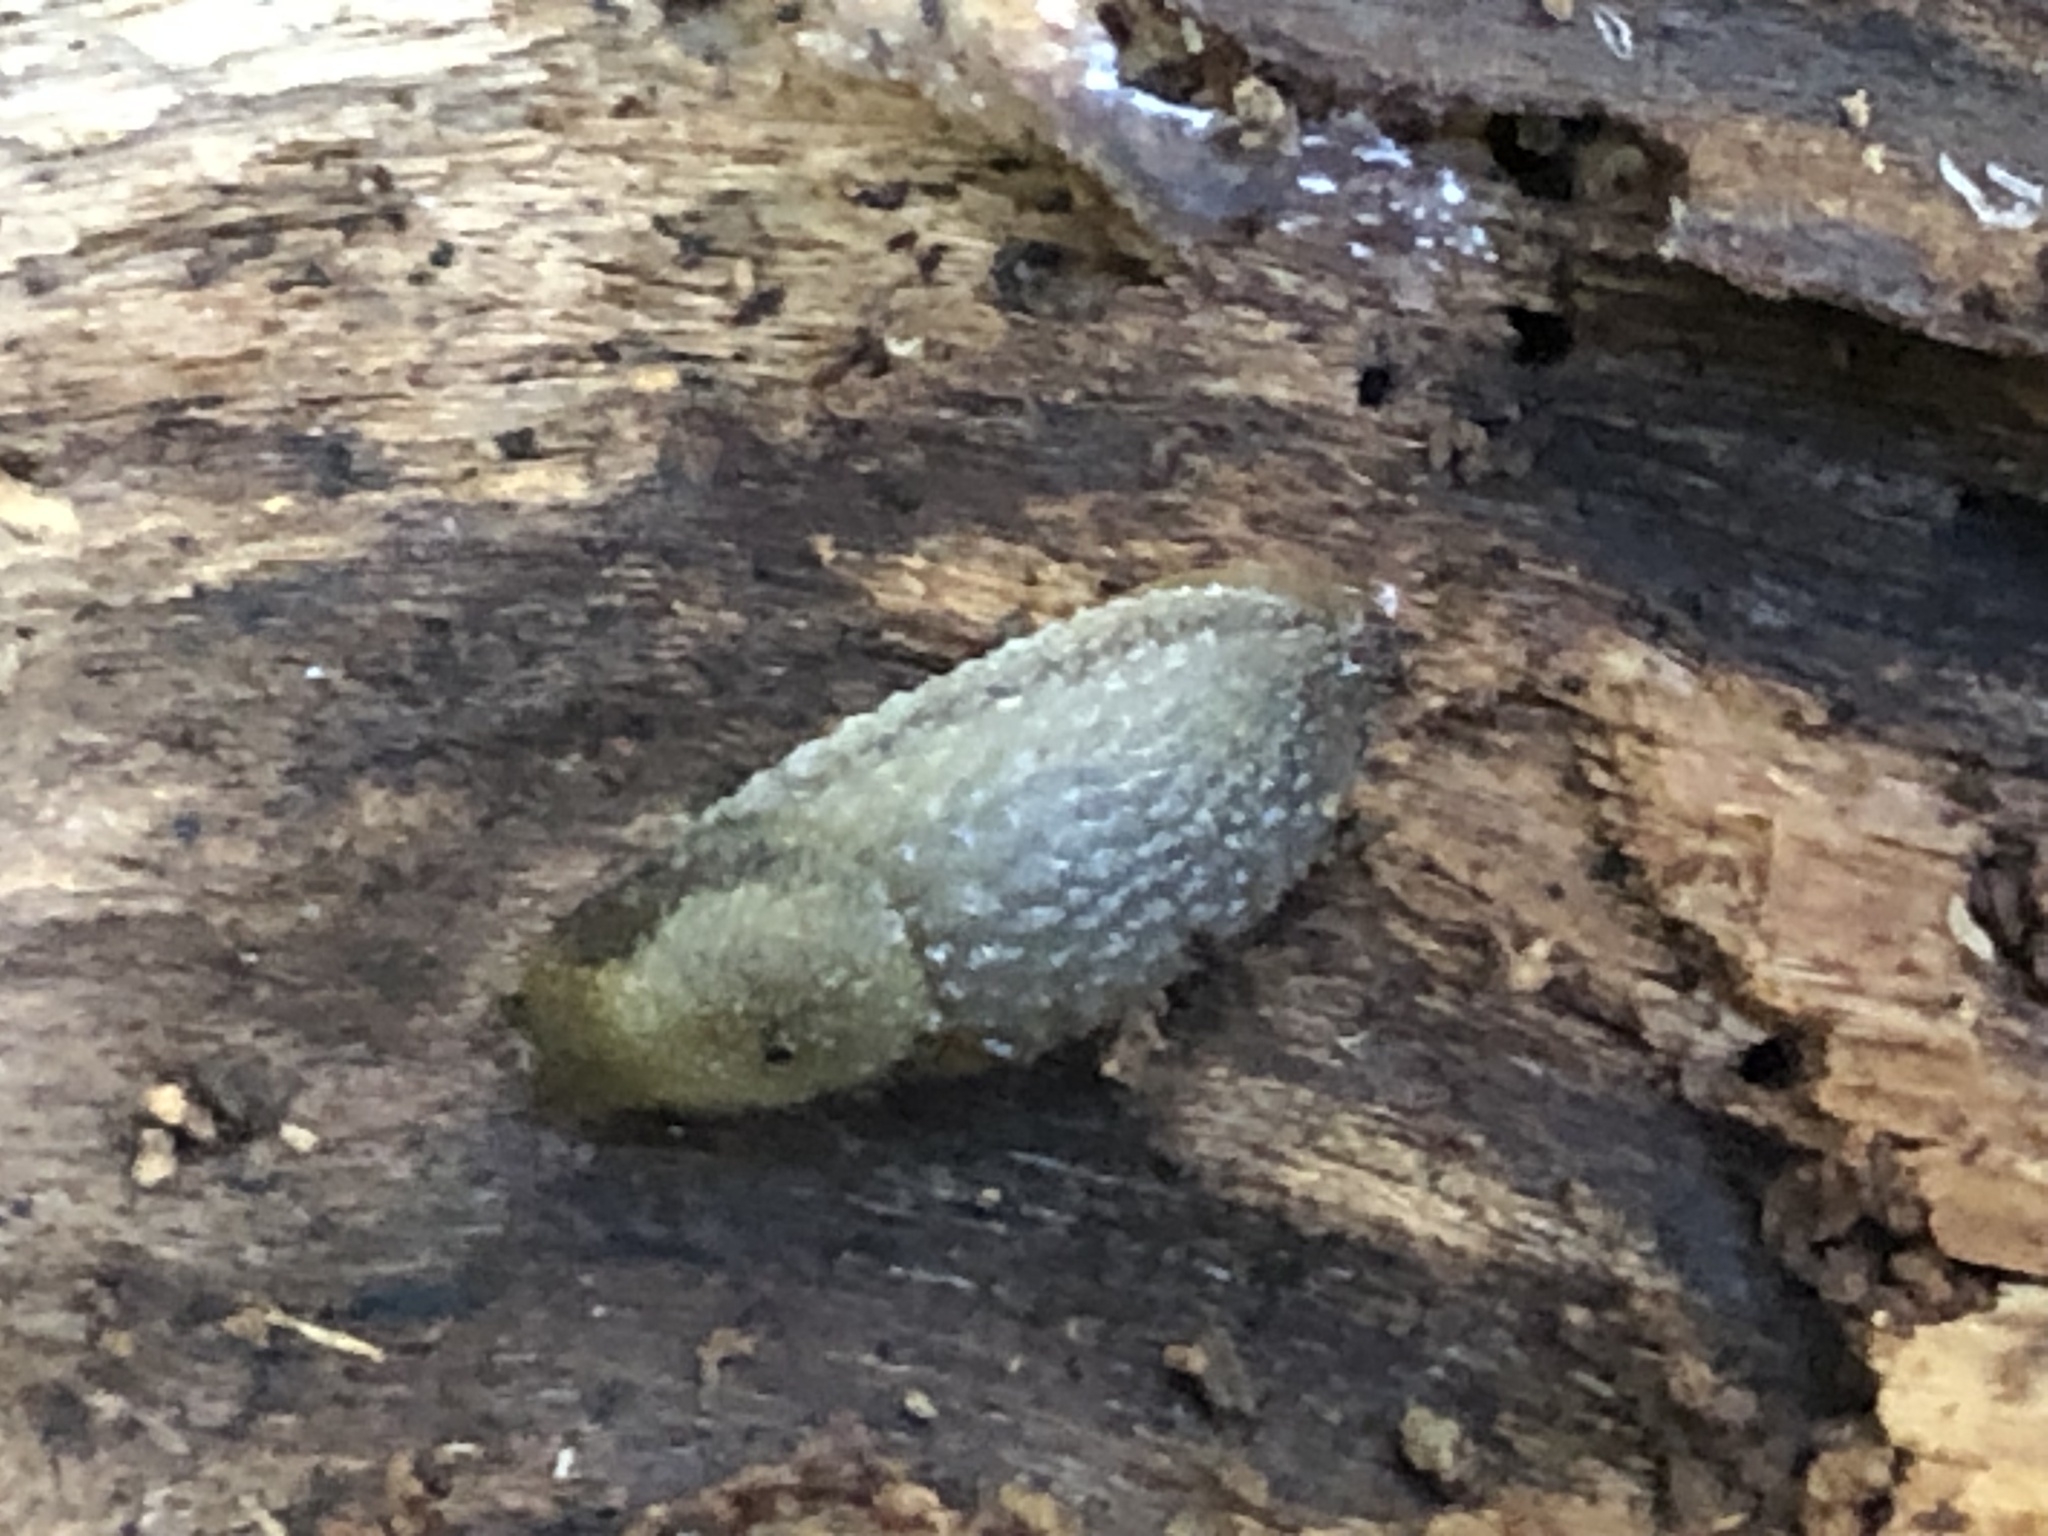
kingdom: Animalia
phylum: Mollusca
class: Gastropoda
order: Stylommatophora
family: Arionidae
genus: Arion
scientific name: Arion intermedius
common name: Hedgehog slug
